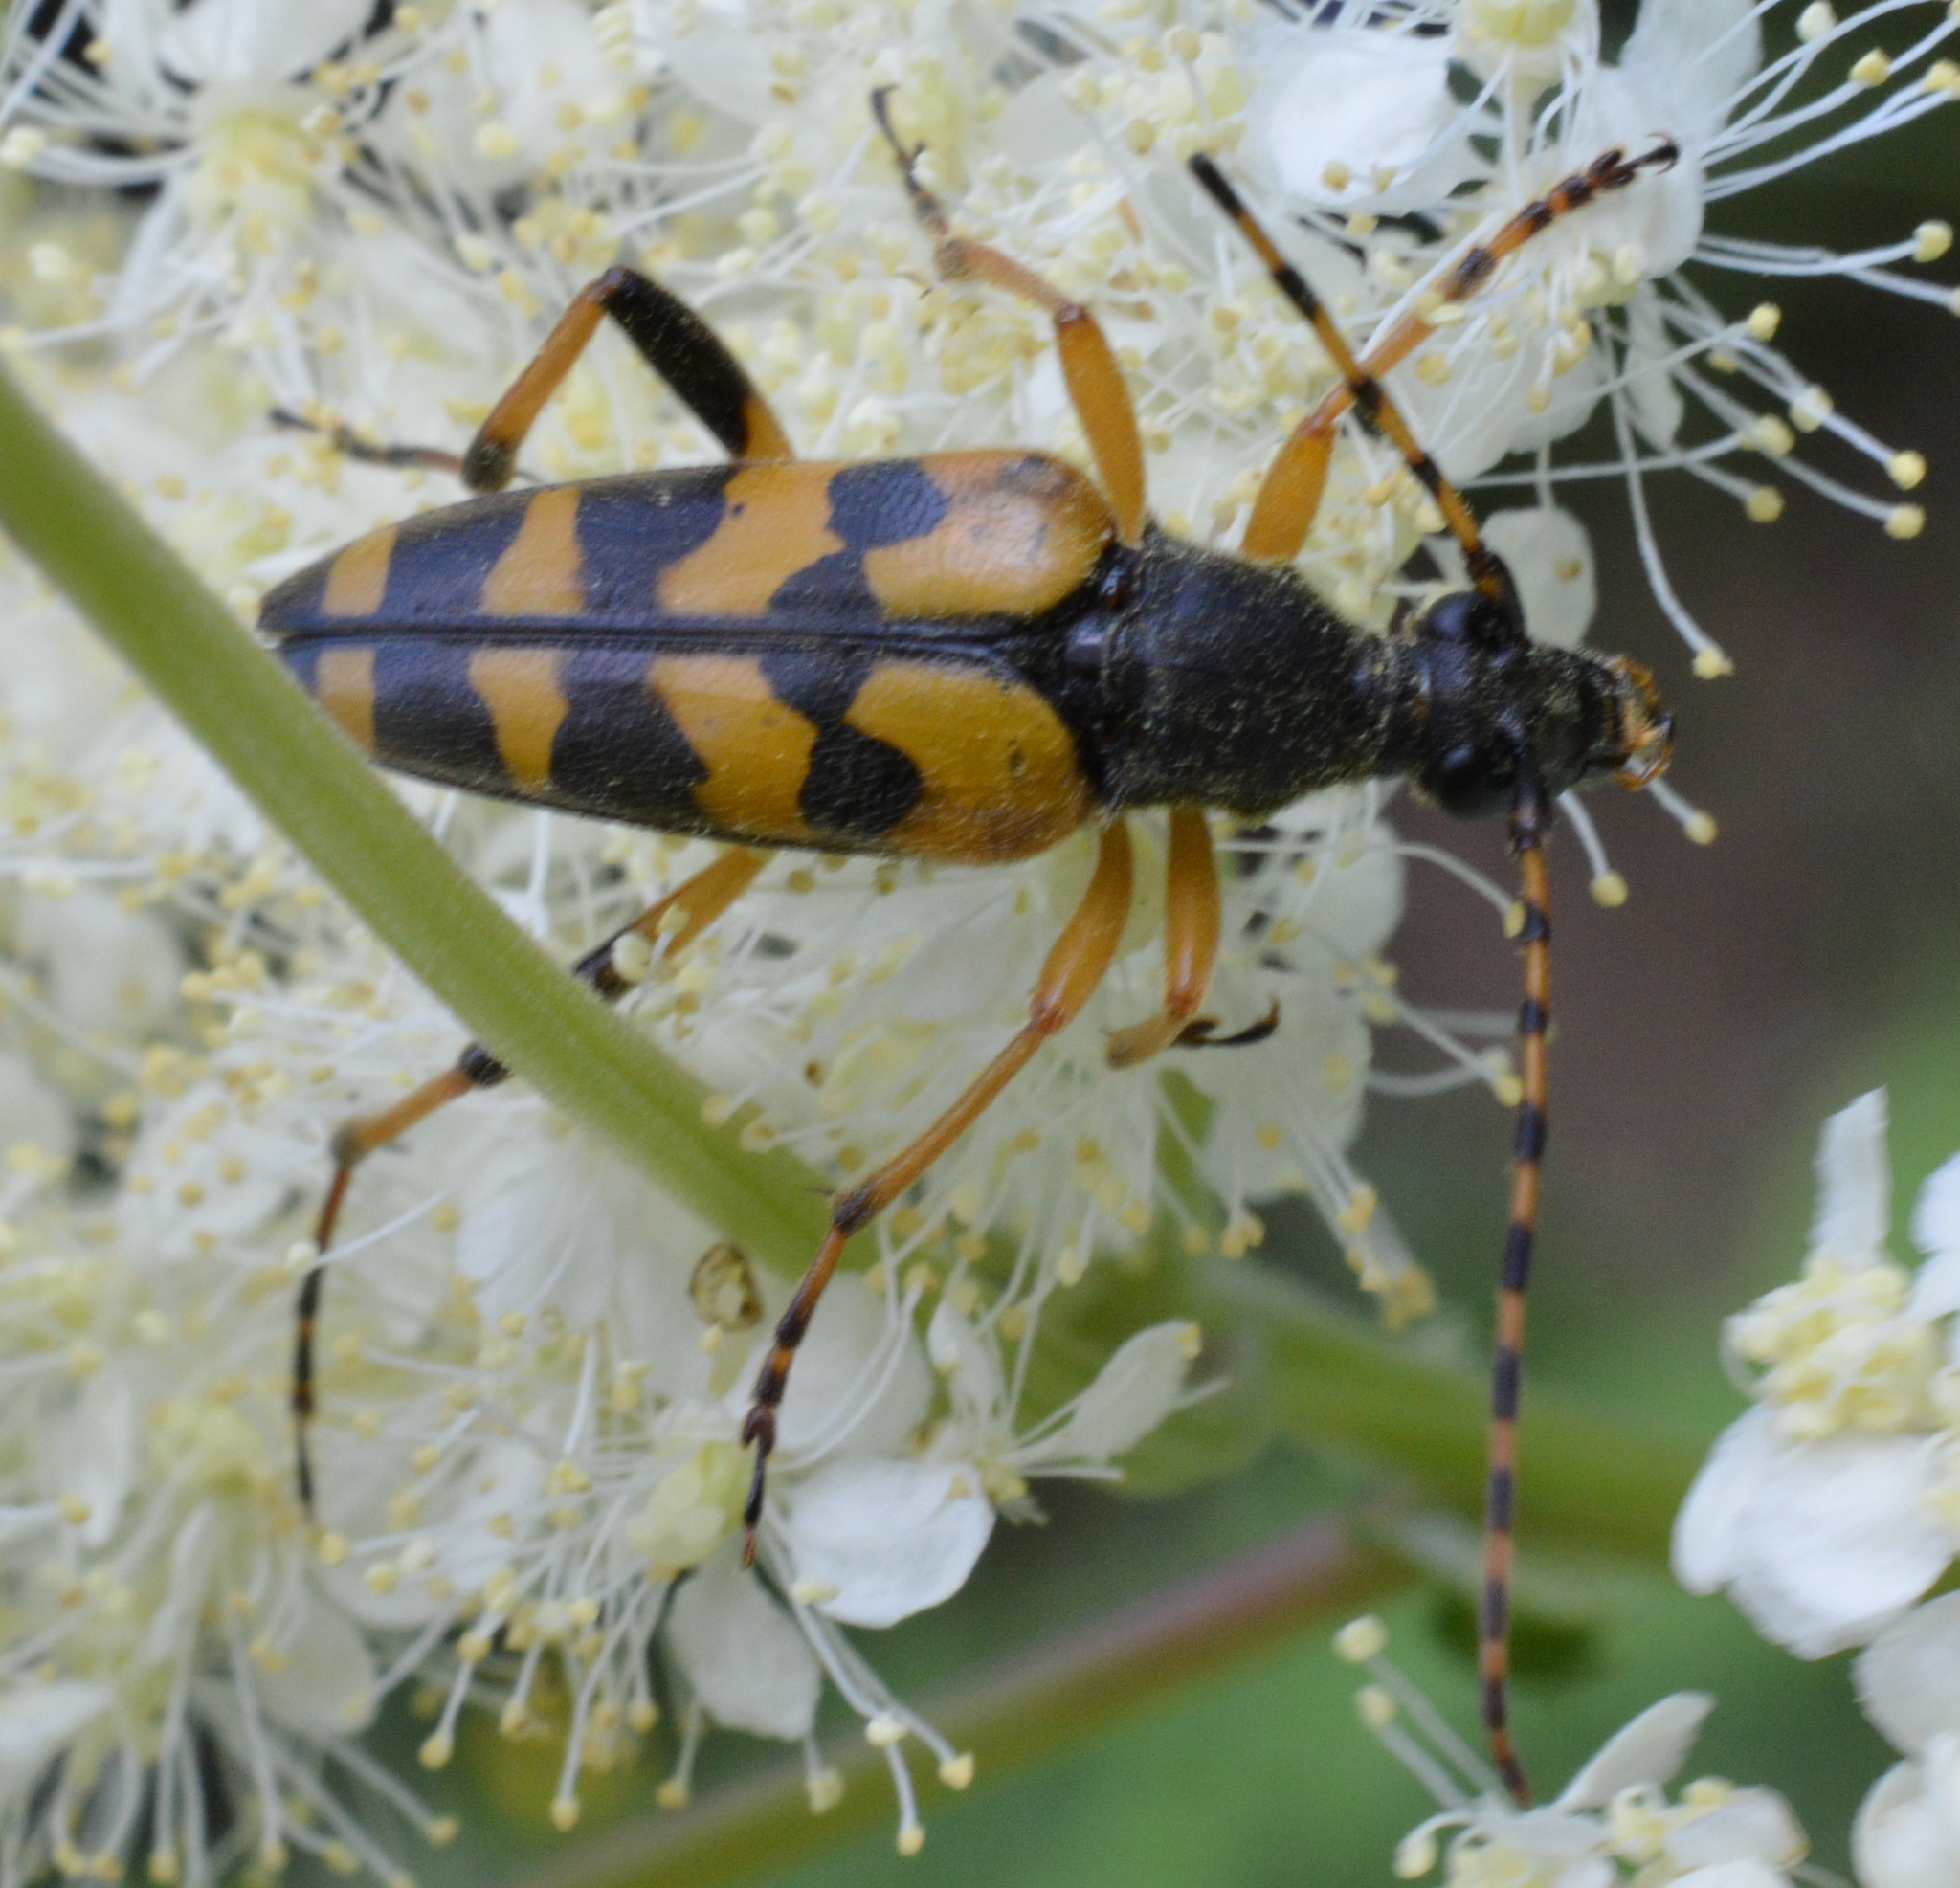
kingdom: Animalia
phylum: Arthropoda
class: Insecta
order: Coleoptera
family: Cerambycidae
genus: Rutpela
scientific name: Rutpela maculata
